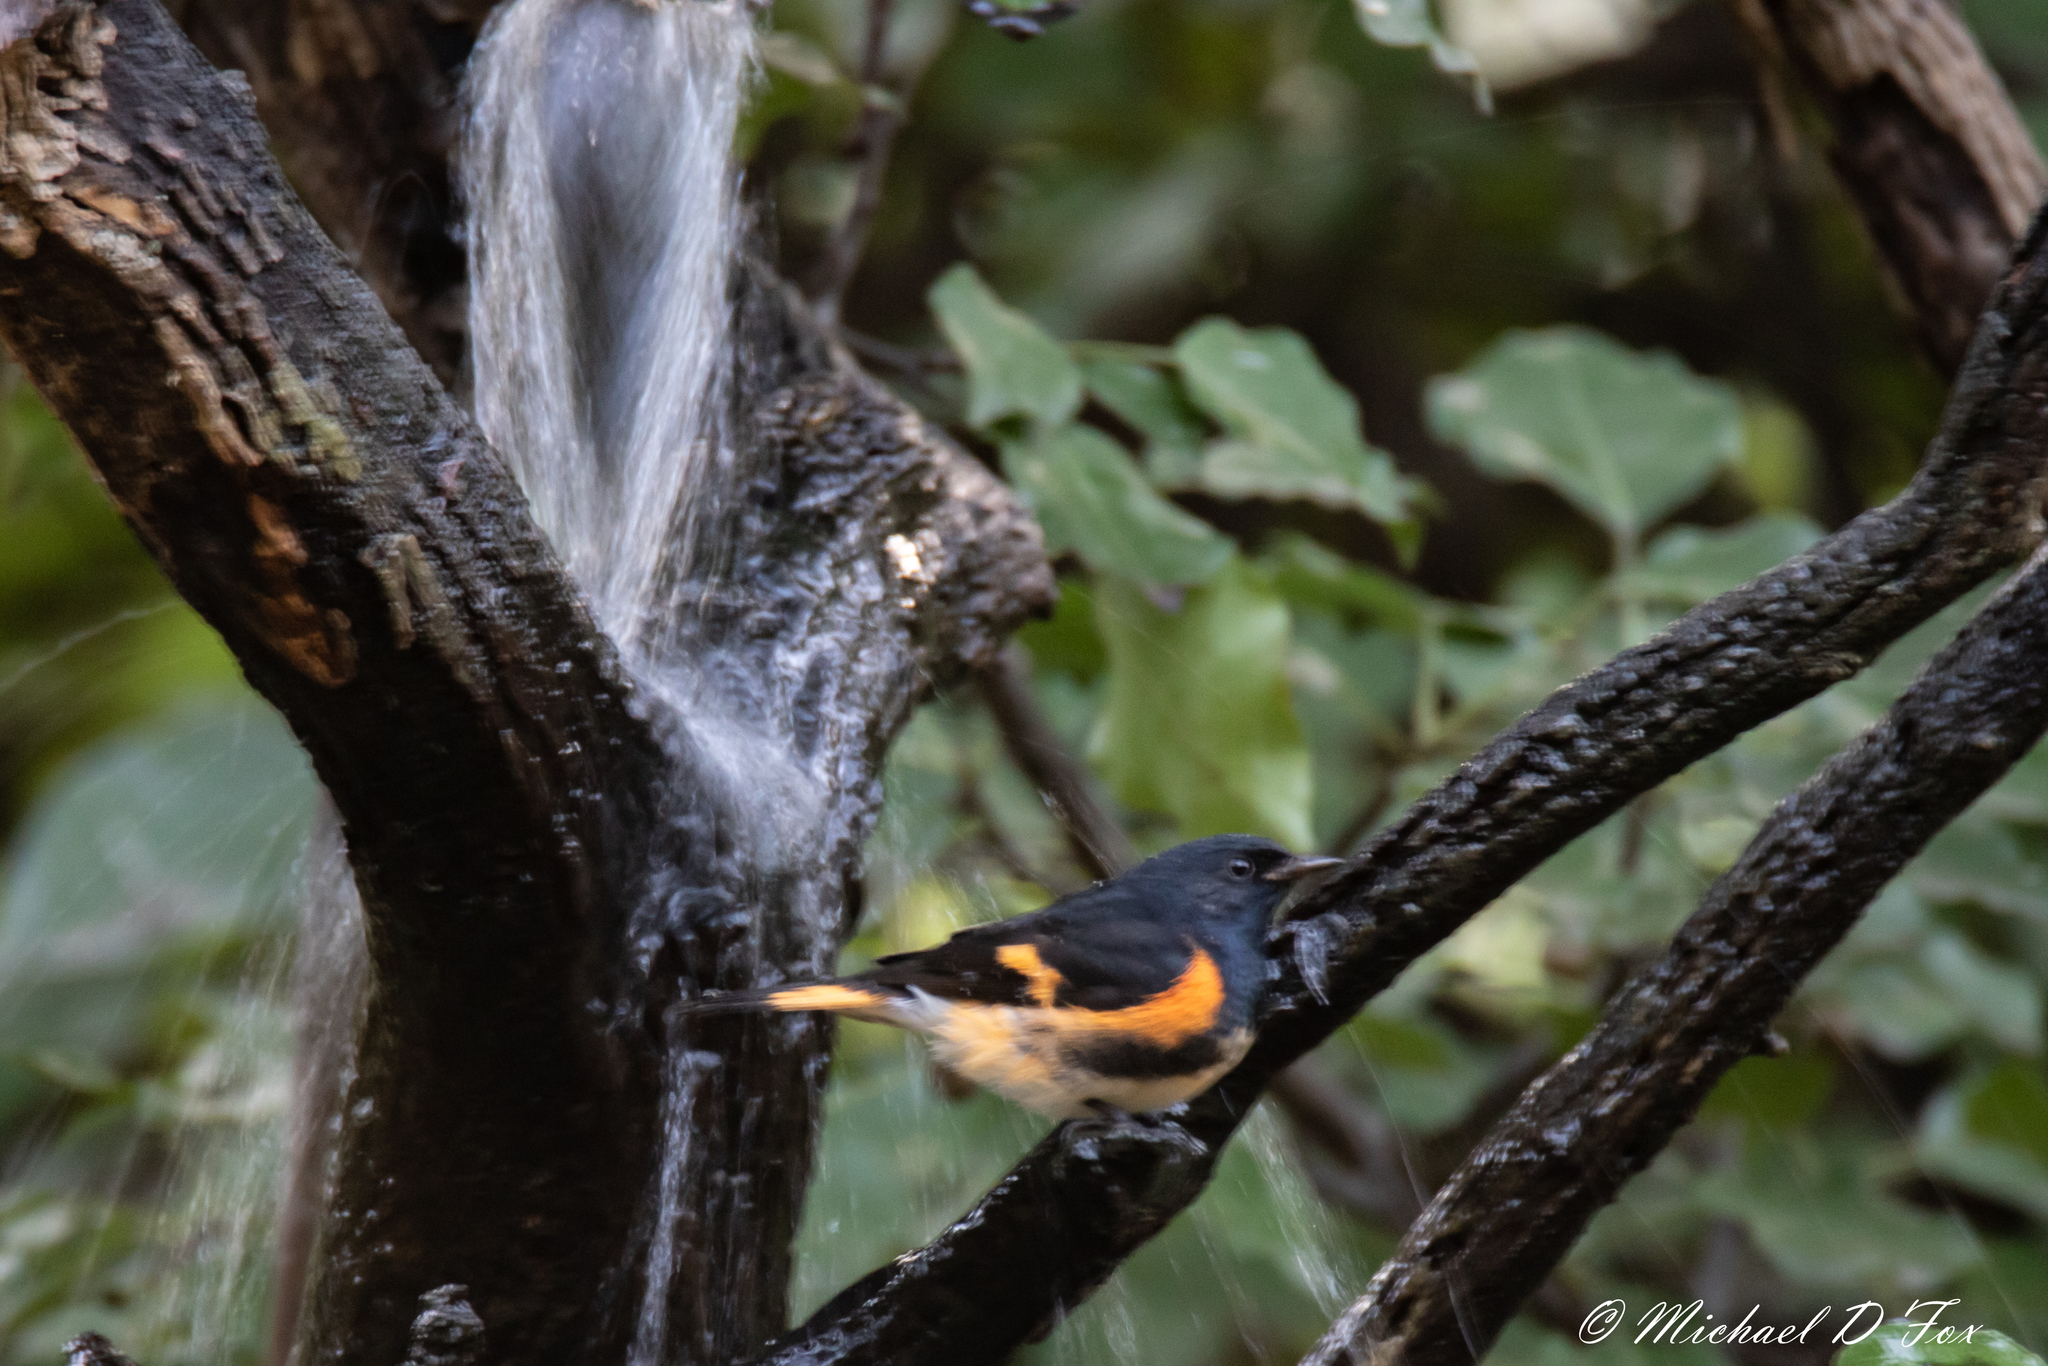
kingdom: Animalia
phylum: Chordata
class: Aves
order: Passeriformes
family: Parulidae
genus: Setophaga
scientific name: Setophaga ruticilla
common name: American redstart
